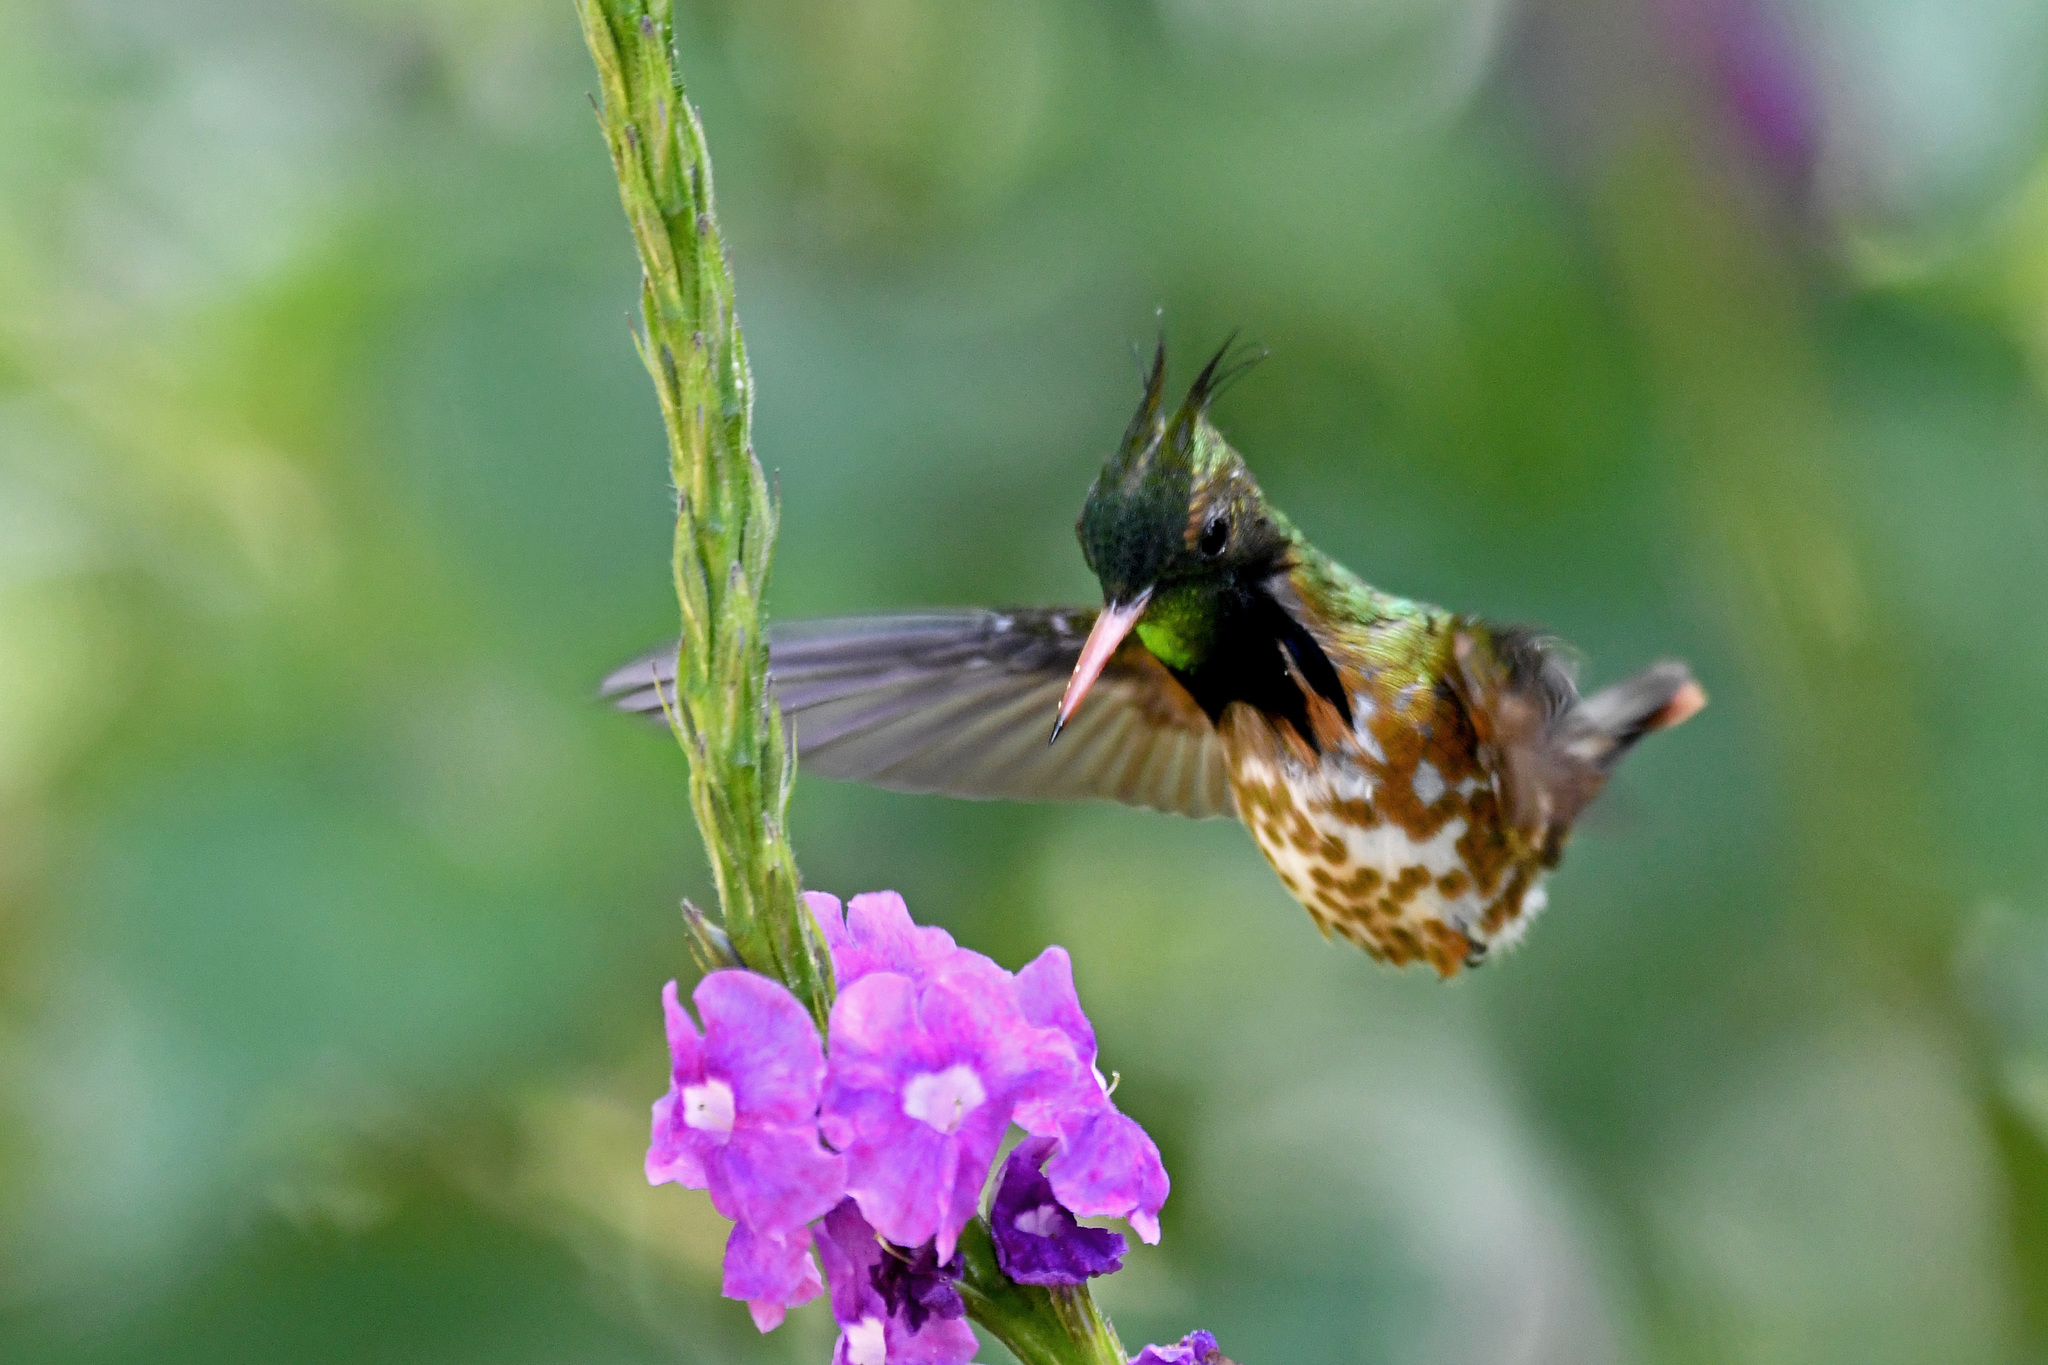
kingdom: Animalia
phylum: Chordata
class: Aves
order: Apodiformes
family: Trochilidae
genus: Lophornis
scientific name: Lophornis helenae
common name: Black-crested coquette
